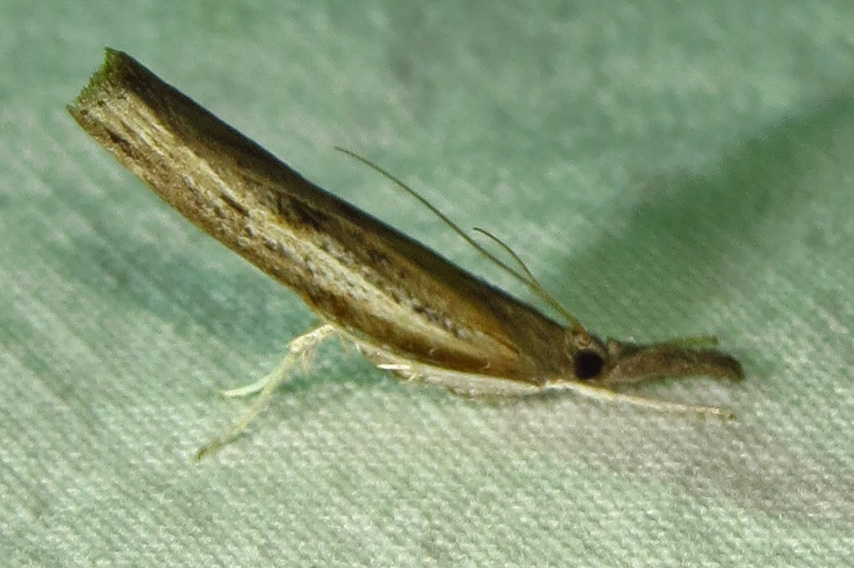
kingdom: Animalia
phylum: Arthropoda
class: Insecta
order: Lepidoptera
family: Crambidae
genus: Fissicrambus
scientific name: Fissicrambus mutabilis
